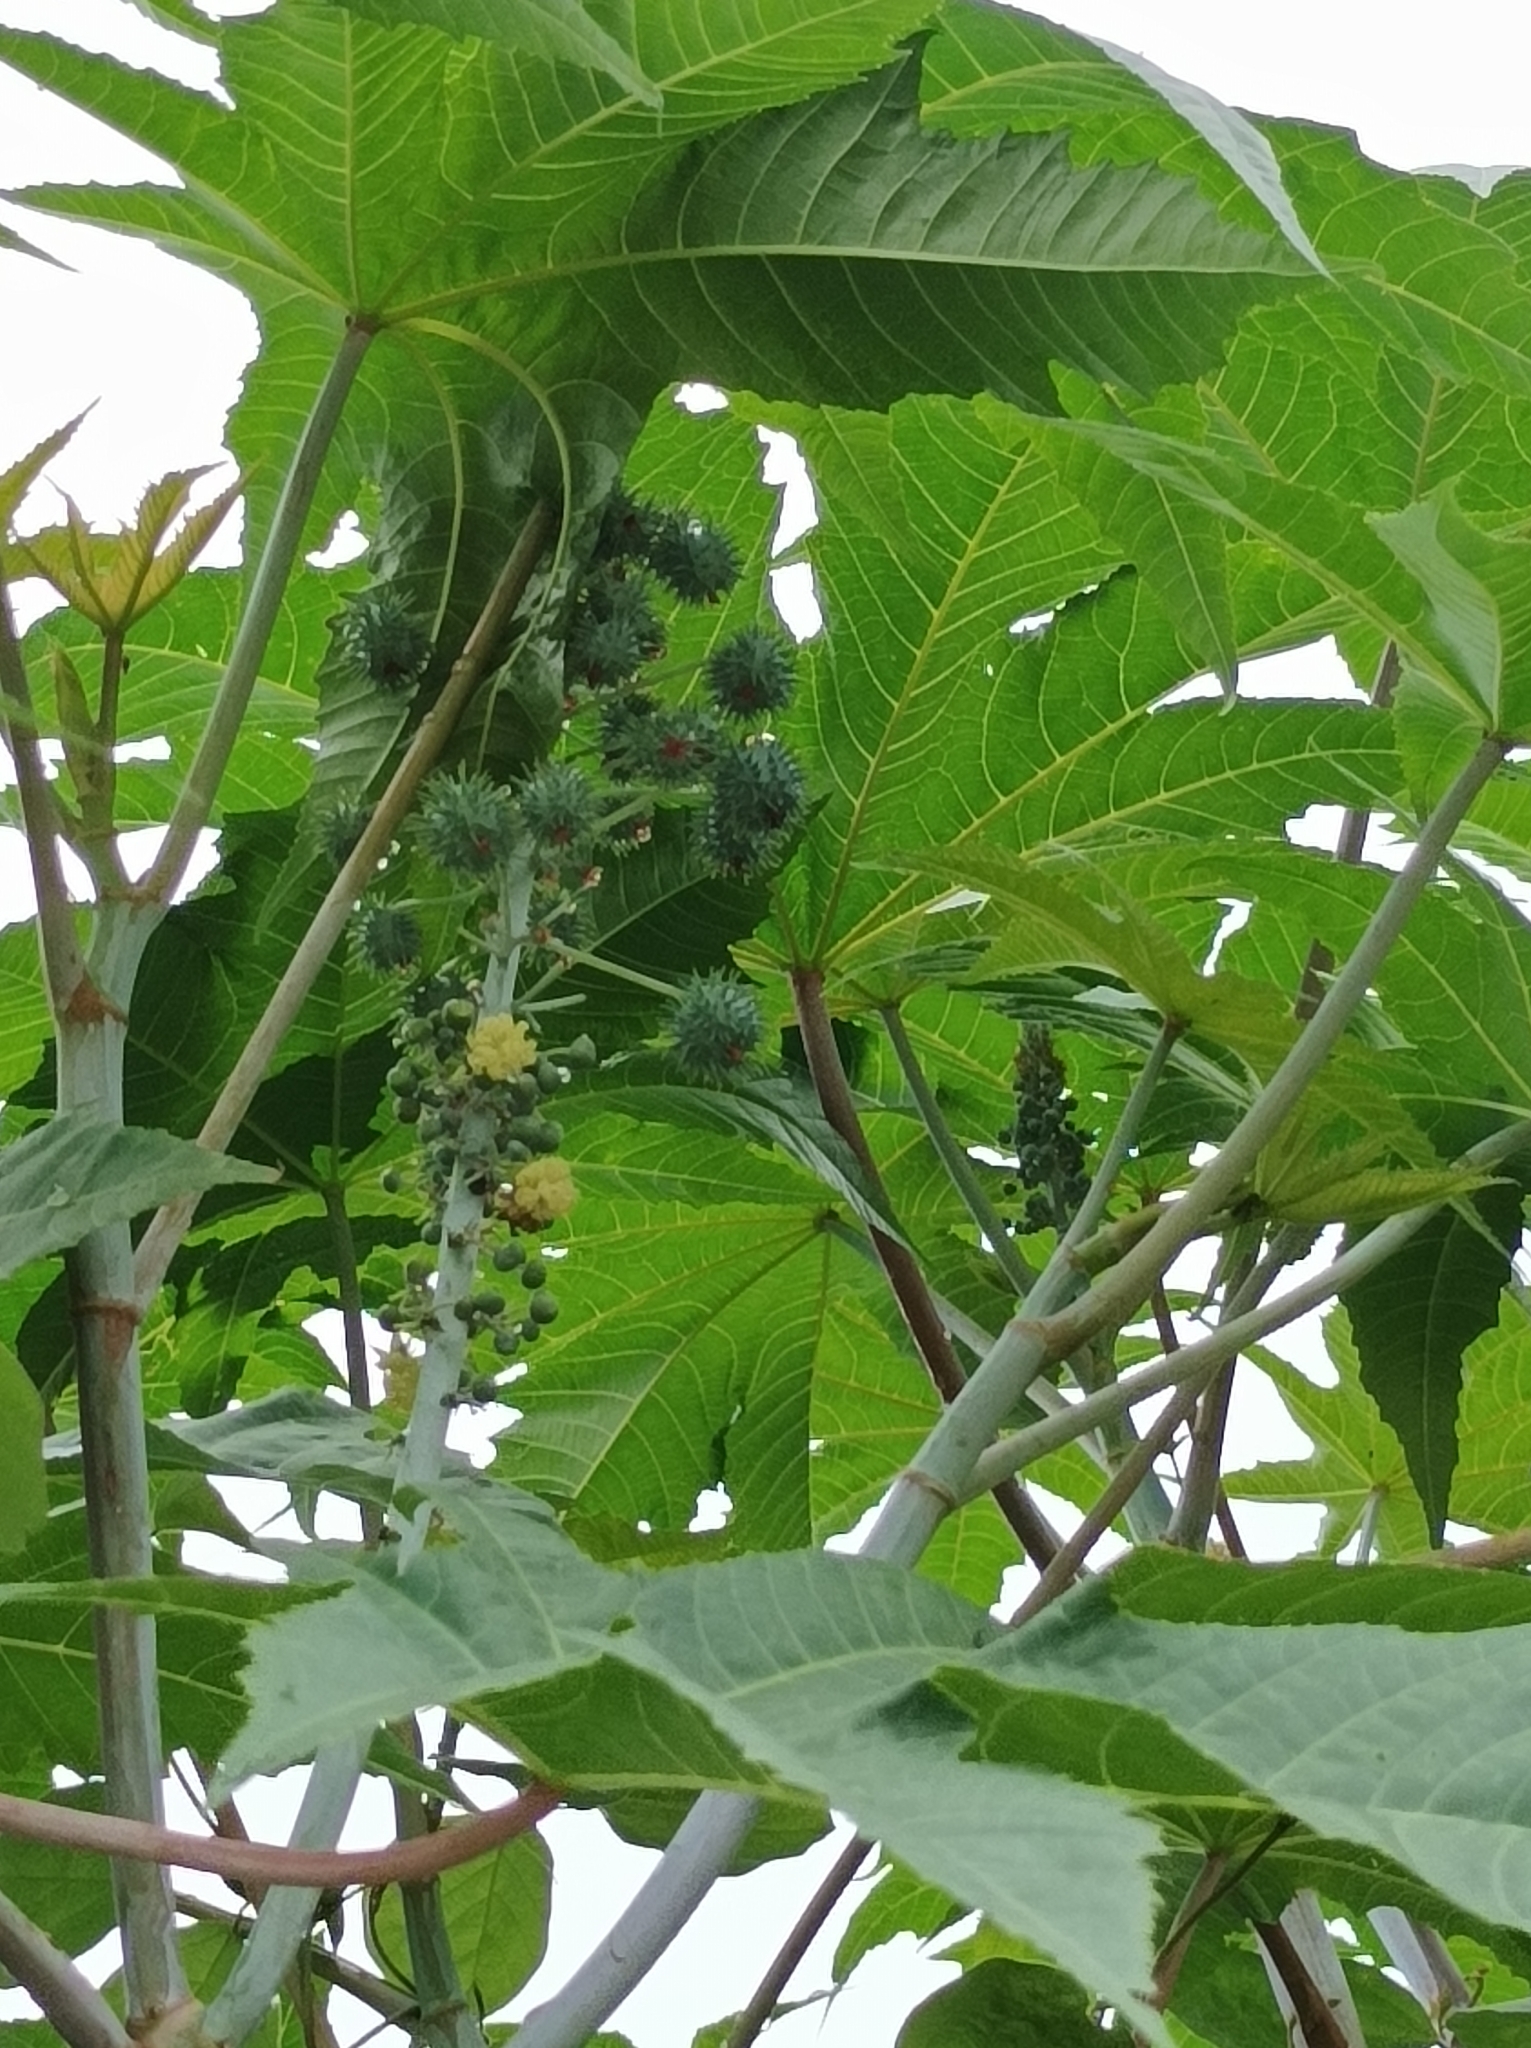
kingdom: Plantae
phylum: Tracheophyta
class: Magnoliopsida
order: Malpighiales
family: Euphorbiaceae
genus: Ricinus
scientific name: Ricinus communis
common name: Castor-oil-plant
